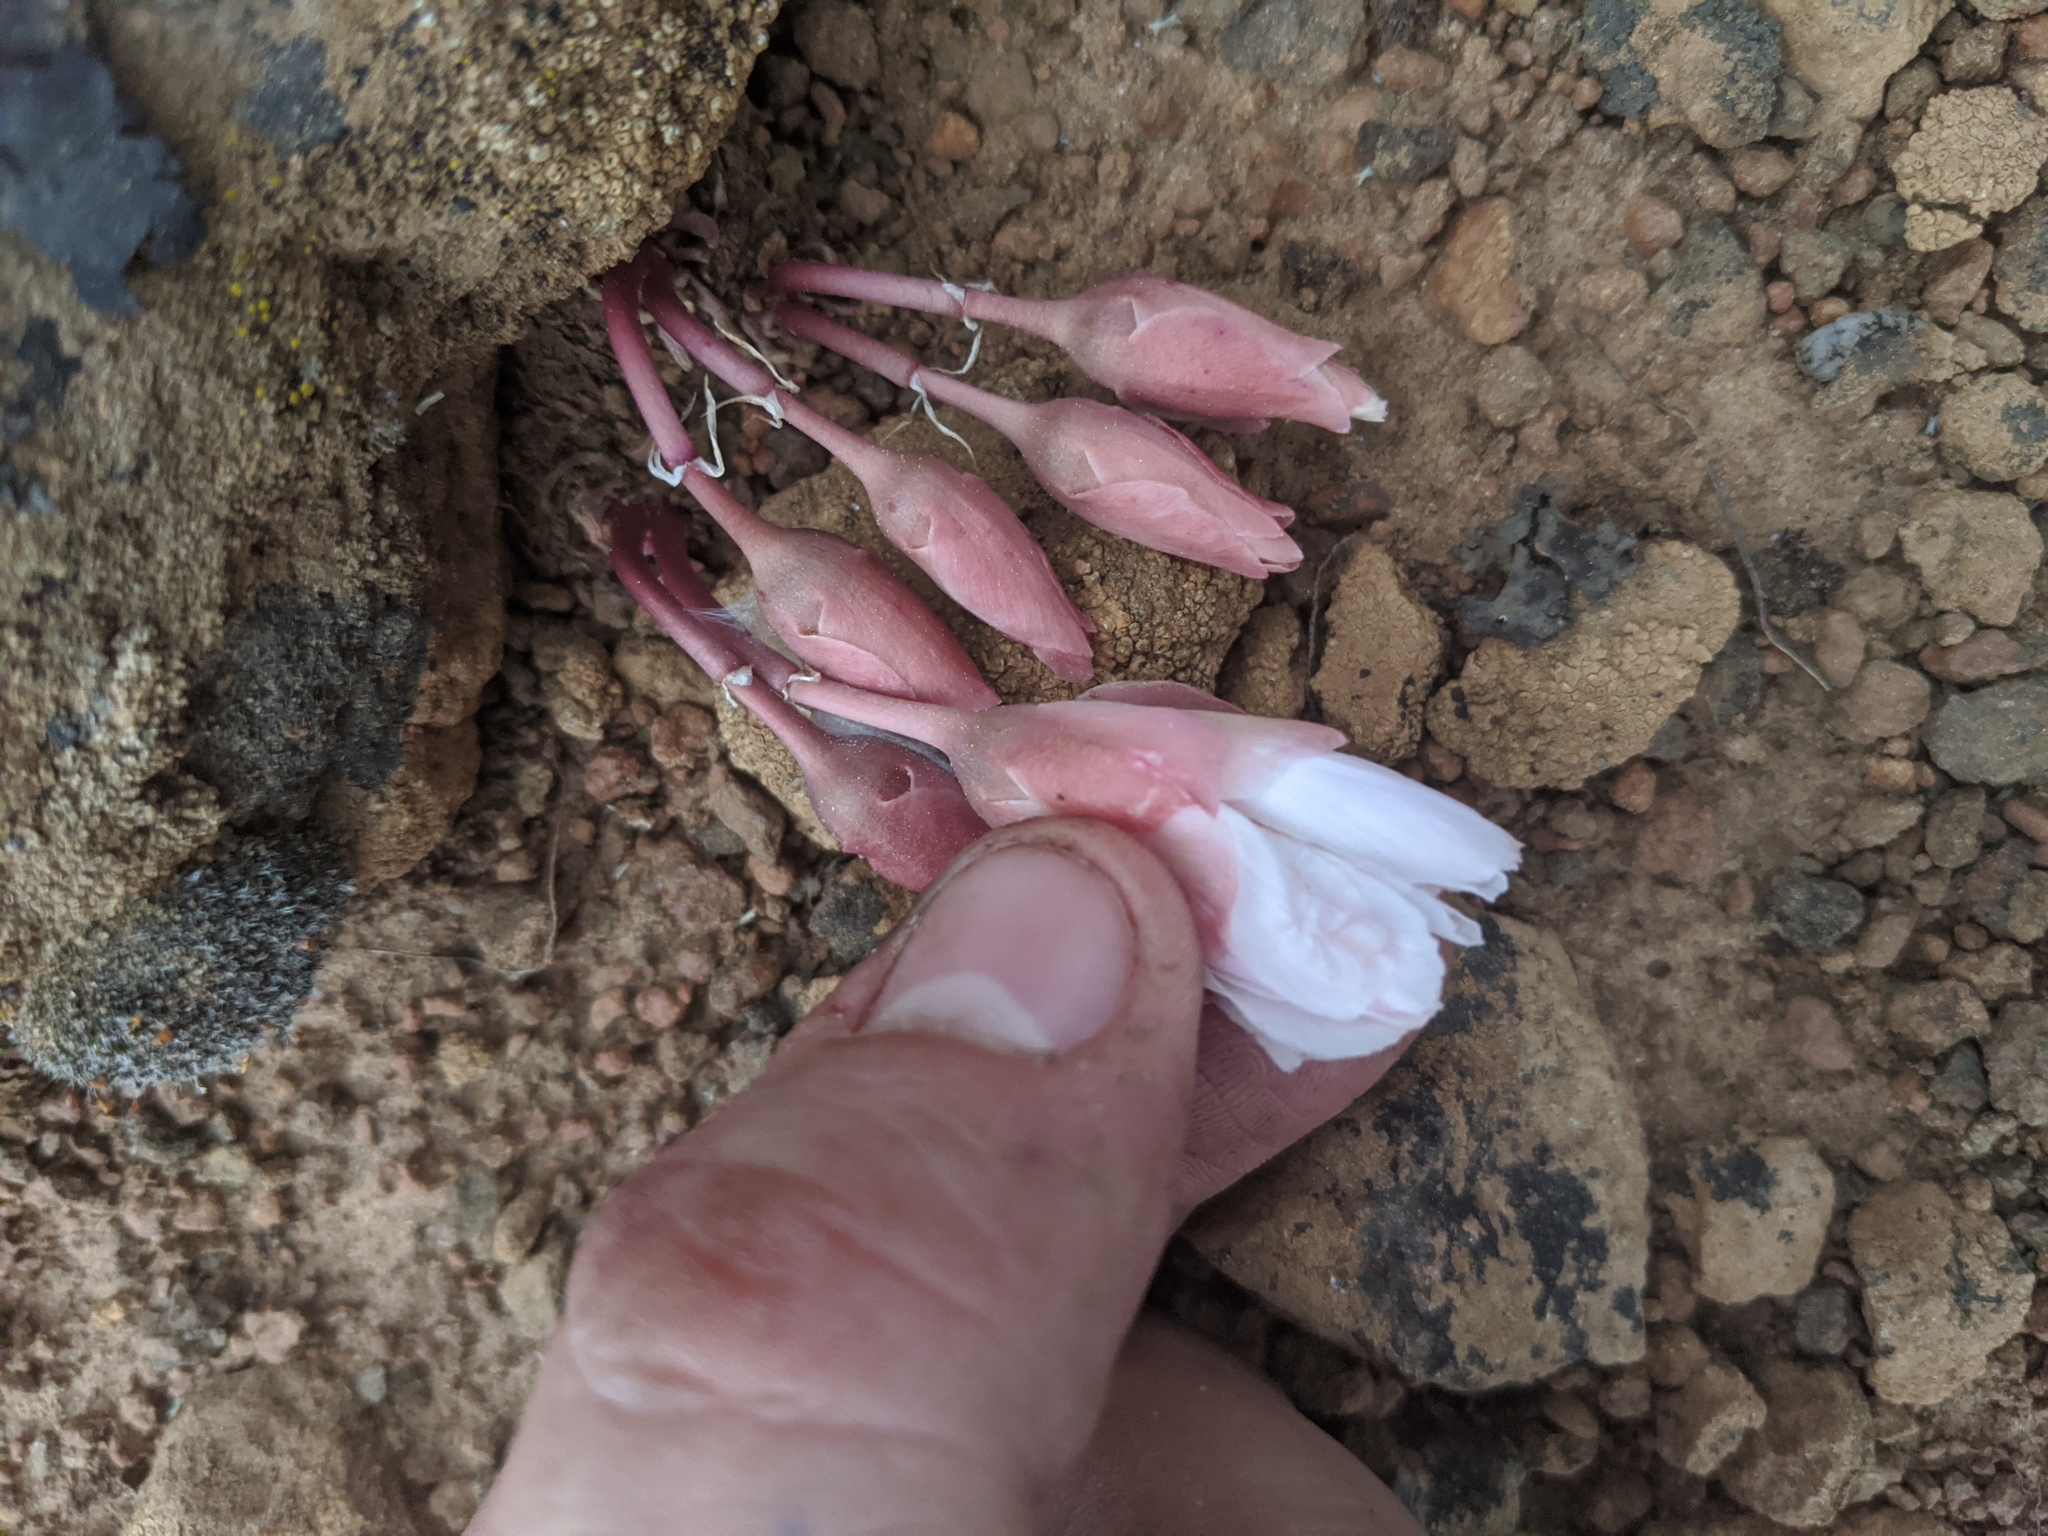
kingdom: Plantae
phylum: Tracheophyta
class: Magnoliopsida
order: Caryophyllales
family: Montiaceae
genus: Lewisia
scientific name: Lewisia rediviva
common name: Bitter-root
